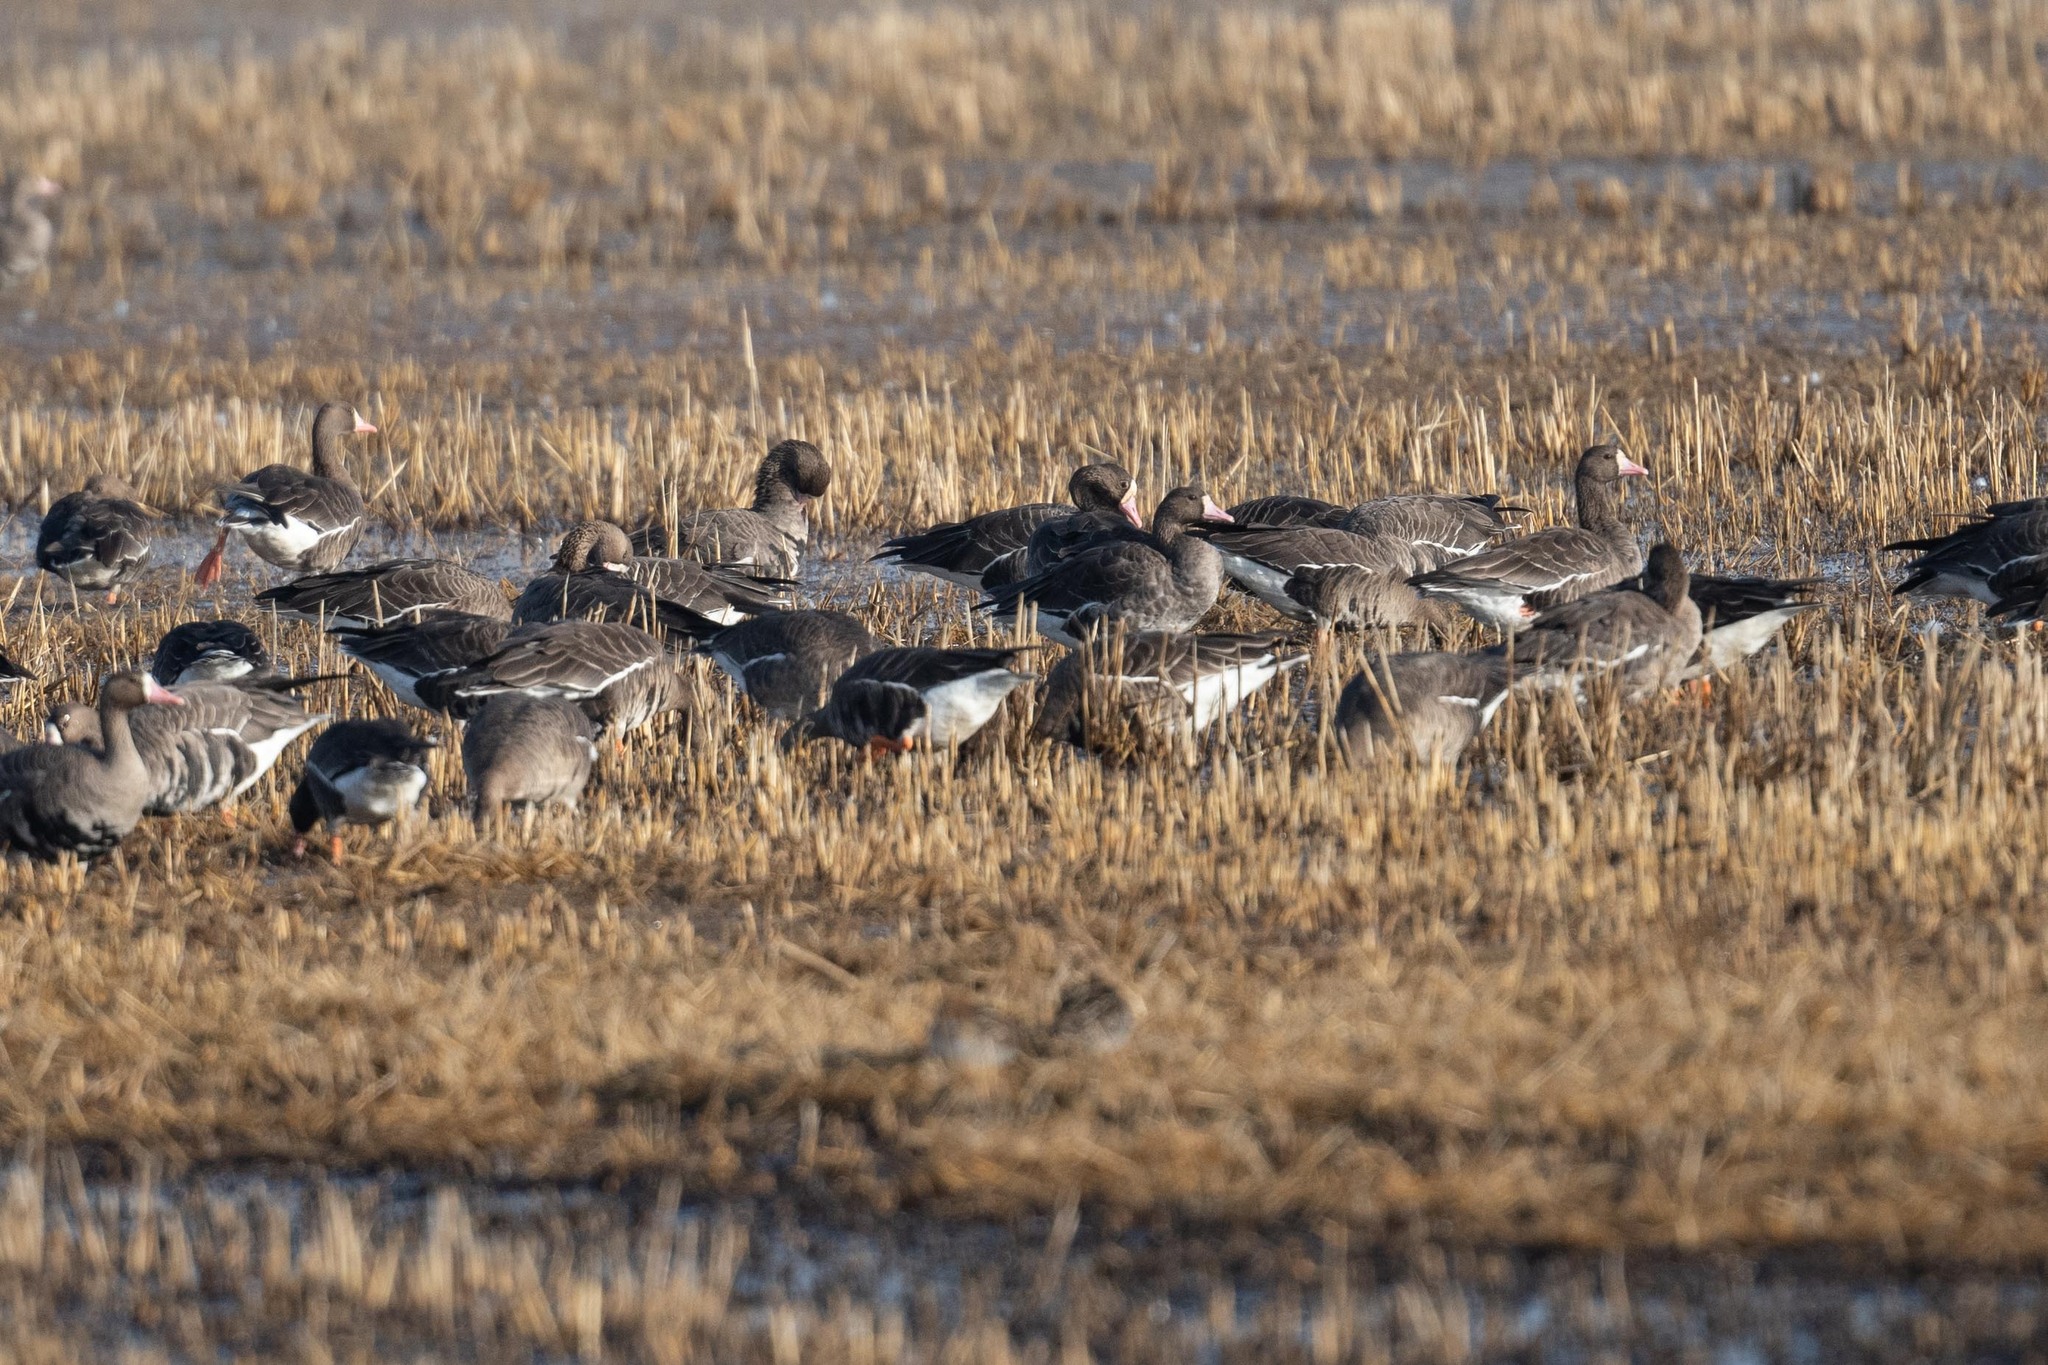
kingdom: Animalia
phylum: Chordata
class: Aves
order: Anseriformes
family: Anatidae
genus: Anser
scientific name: Anser albifrons
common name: Greater white-fronted goose
